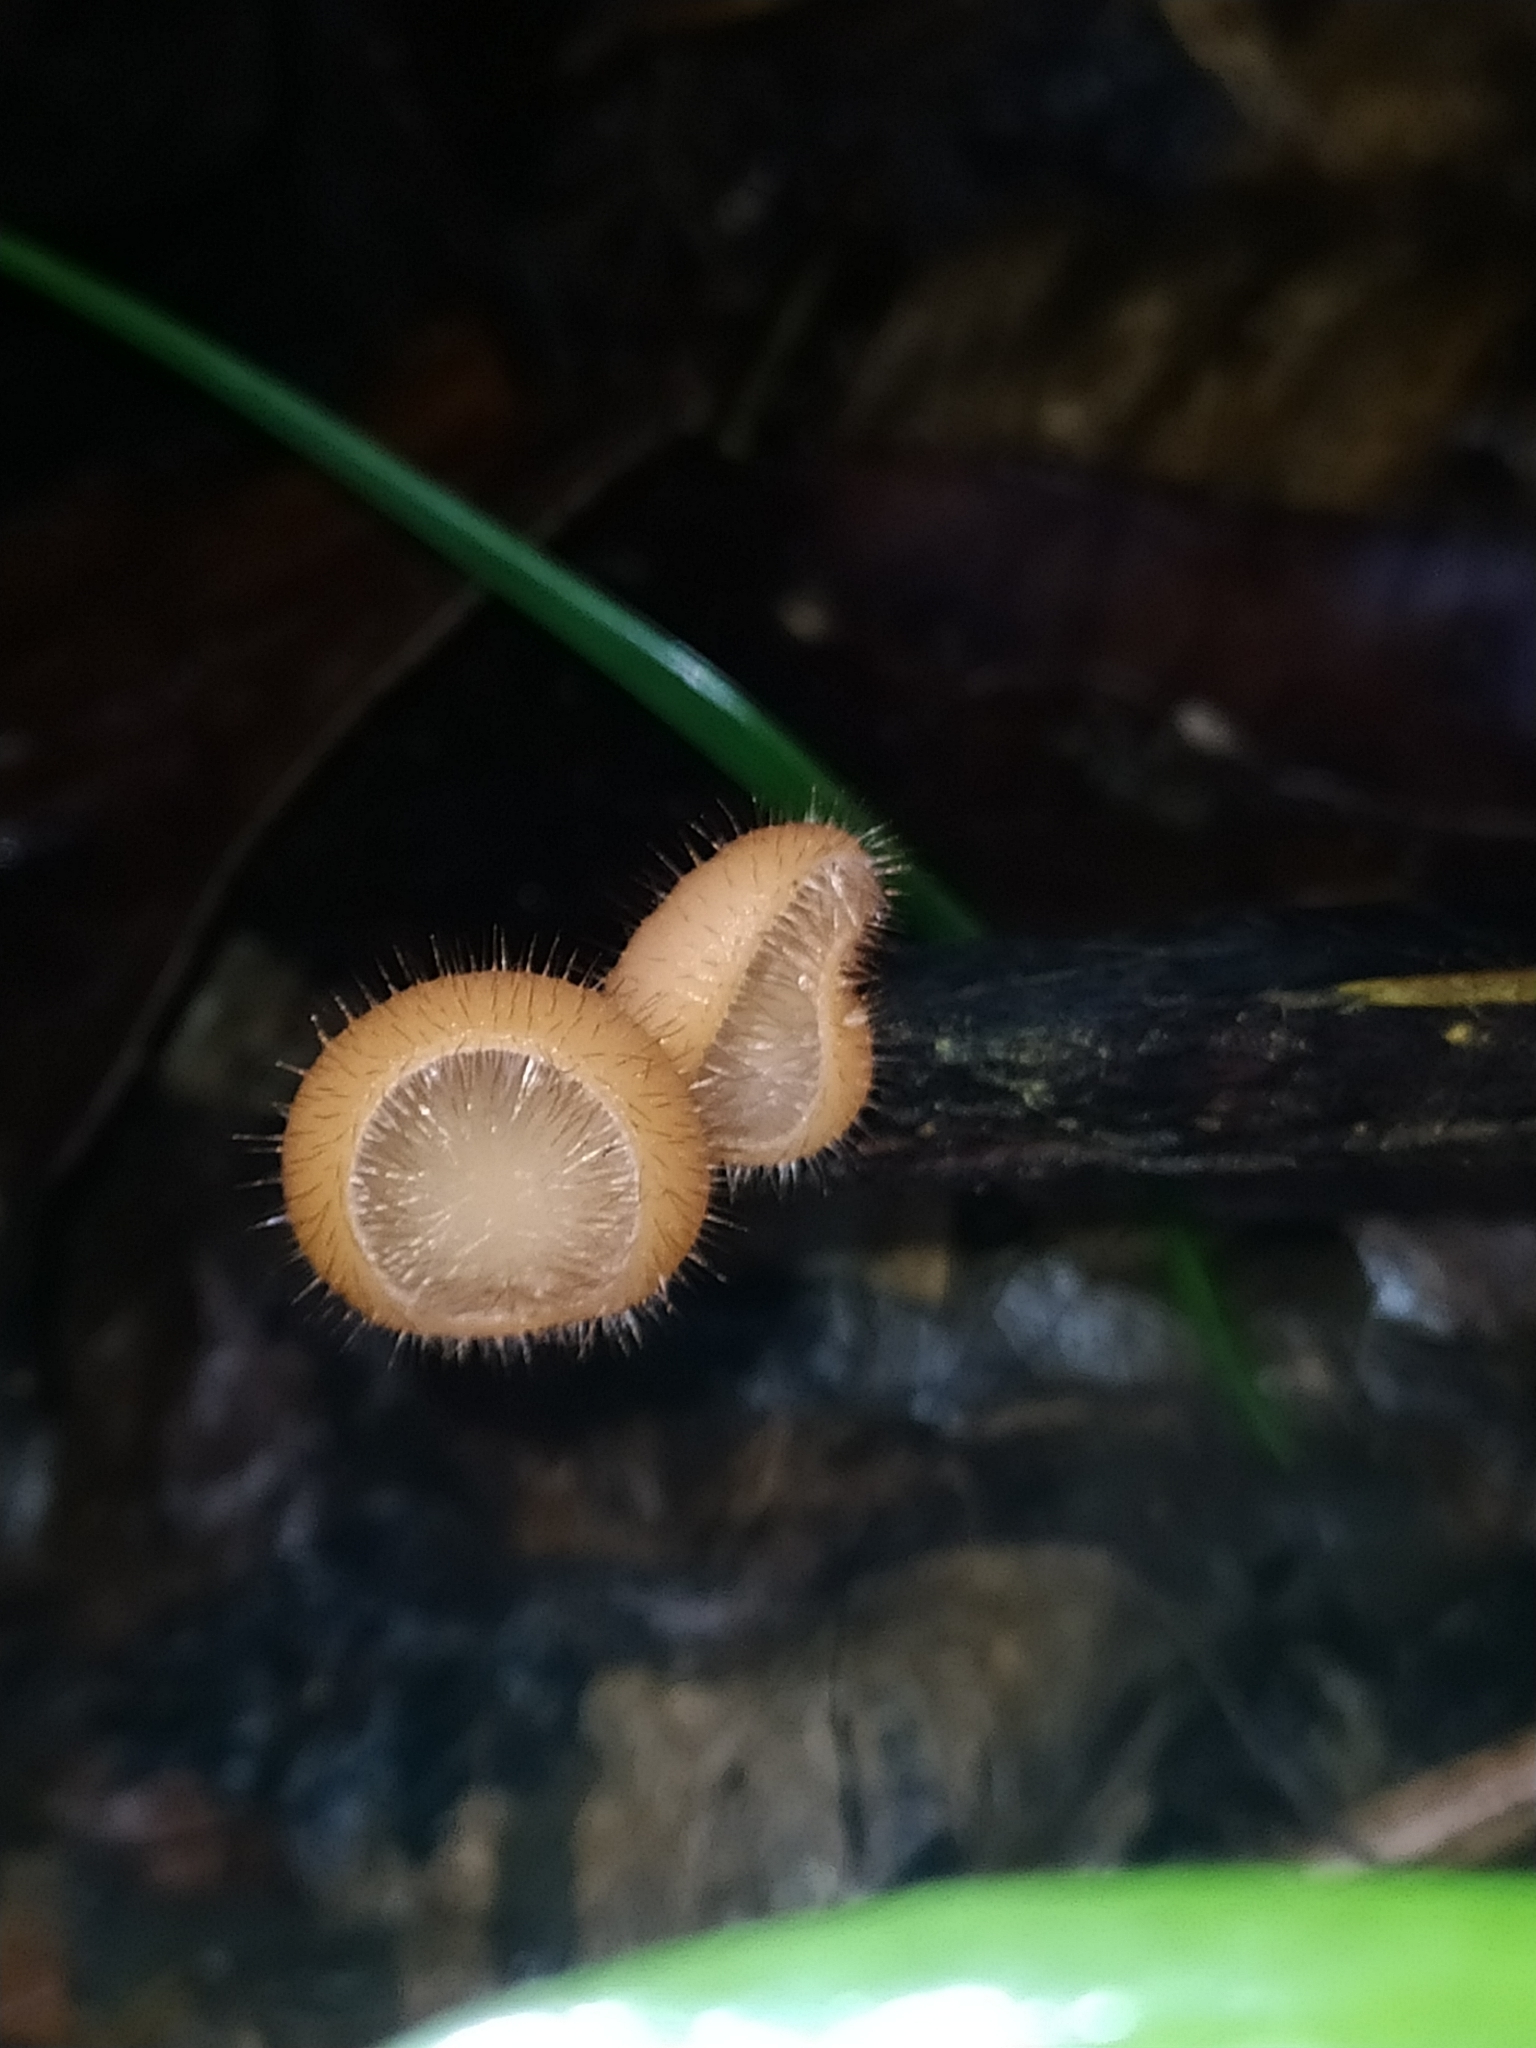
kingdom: Fungi
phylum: Ascomycota
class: Pezizomycetes
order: Pezizales
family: Sarcoscyphaceae
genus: Cookeina
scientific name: Cookeina tricholoma
